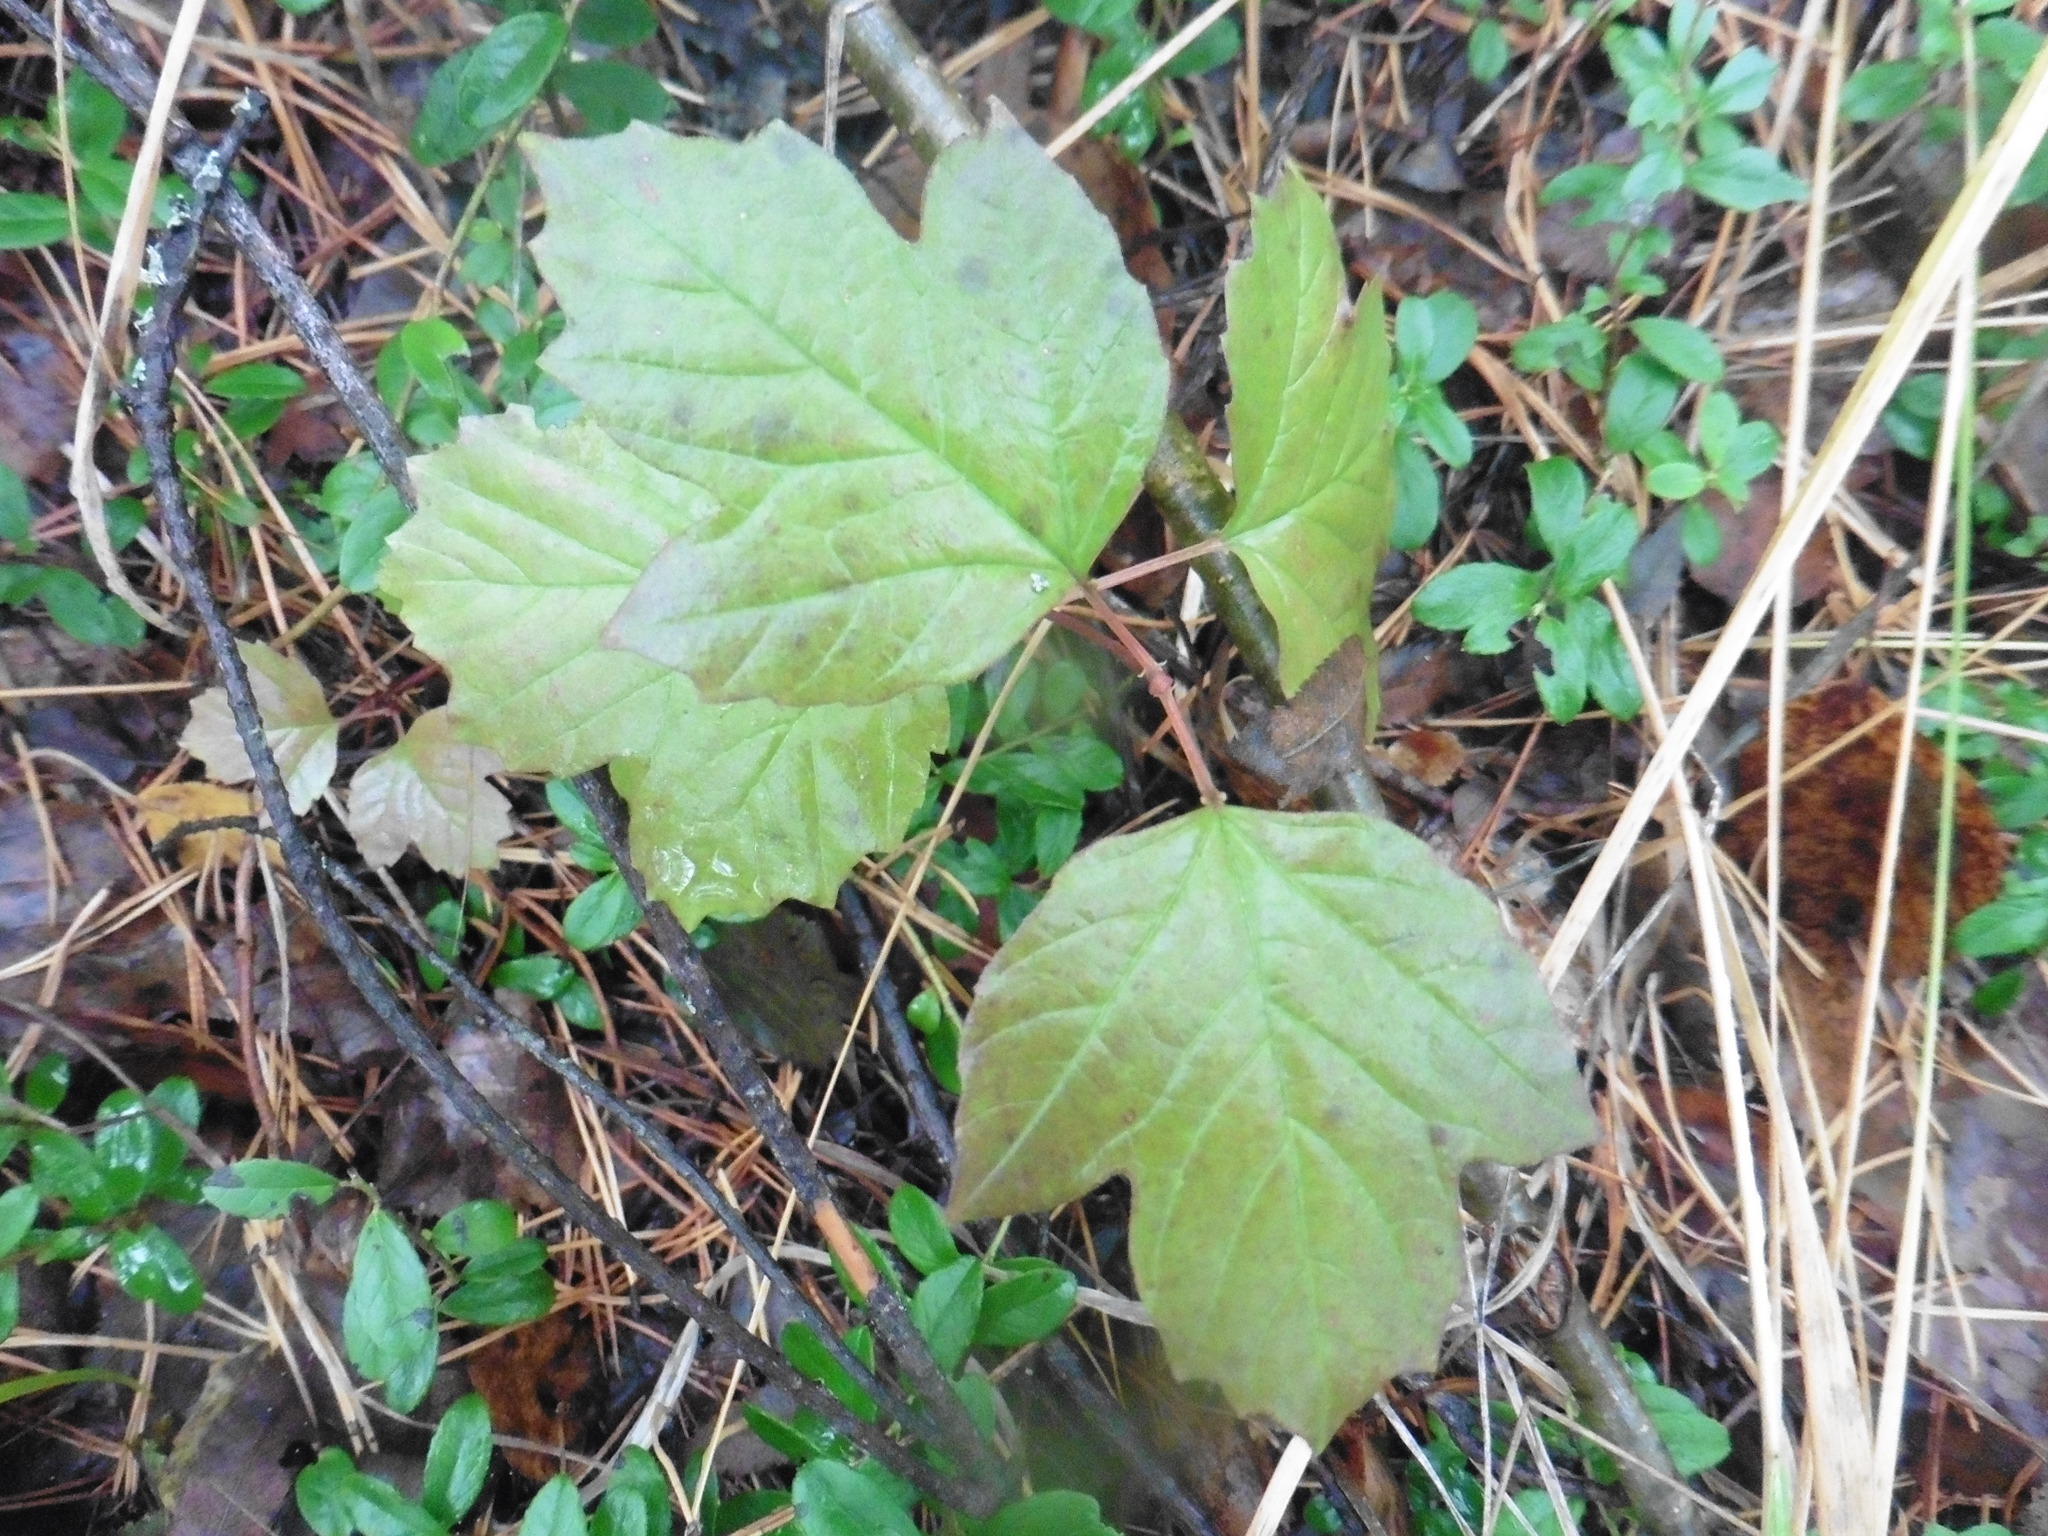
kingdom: Plantae
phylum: Tracheophyta
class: Magnoliopsida
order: Dipsacales
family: Viburnaceae
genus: Viburnum
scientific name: Viburnum opulus
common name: Guelder-rose
